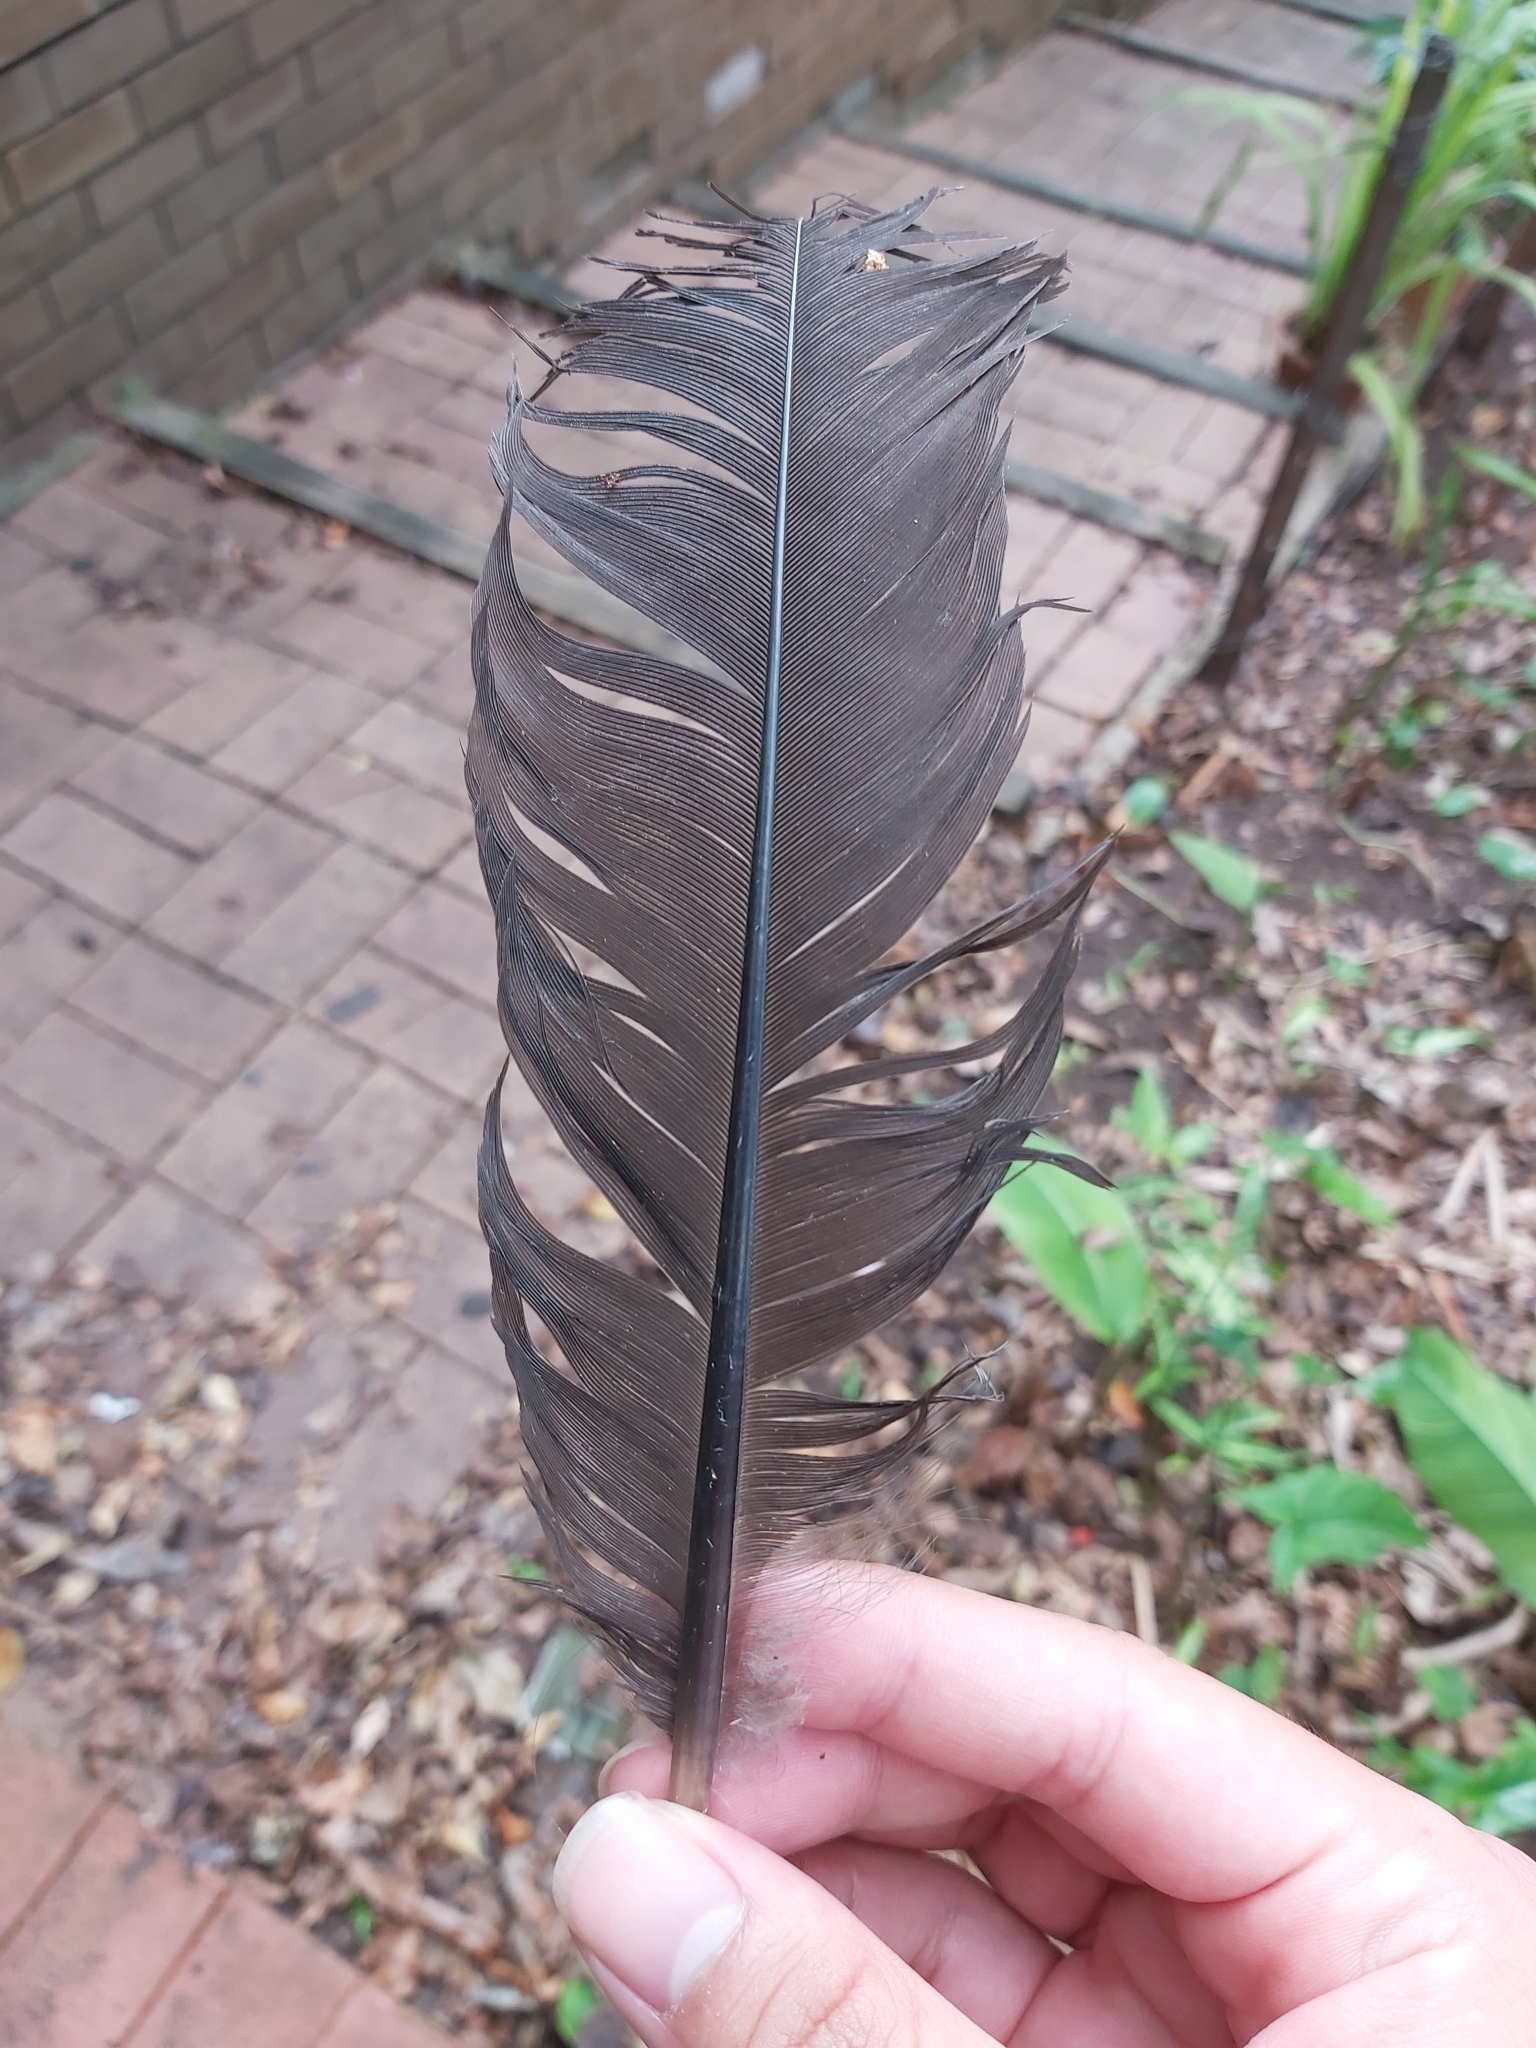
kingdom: Animalia
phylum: Chordata
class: Aves
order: Galliformes
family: Megapodiidae
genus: Alectura
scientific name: Alectura lathami
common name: Australian brushturkey
